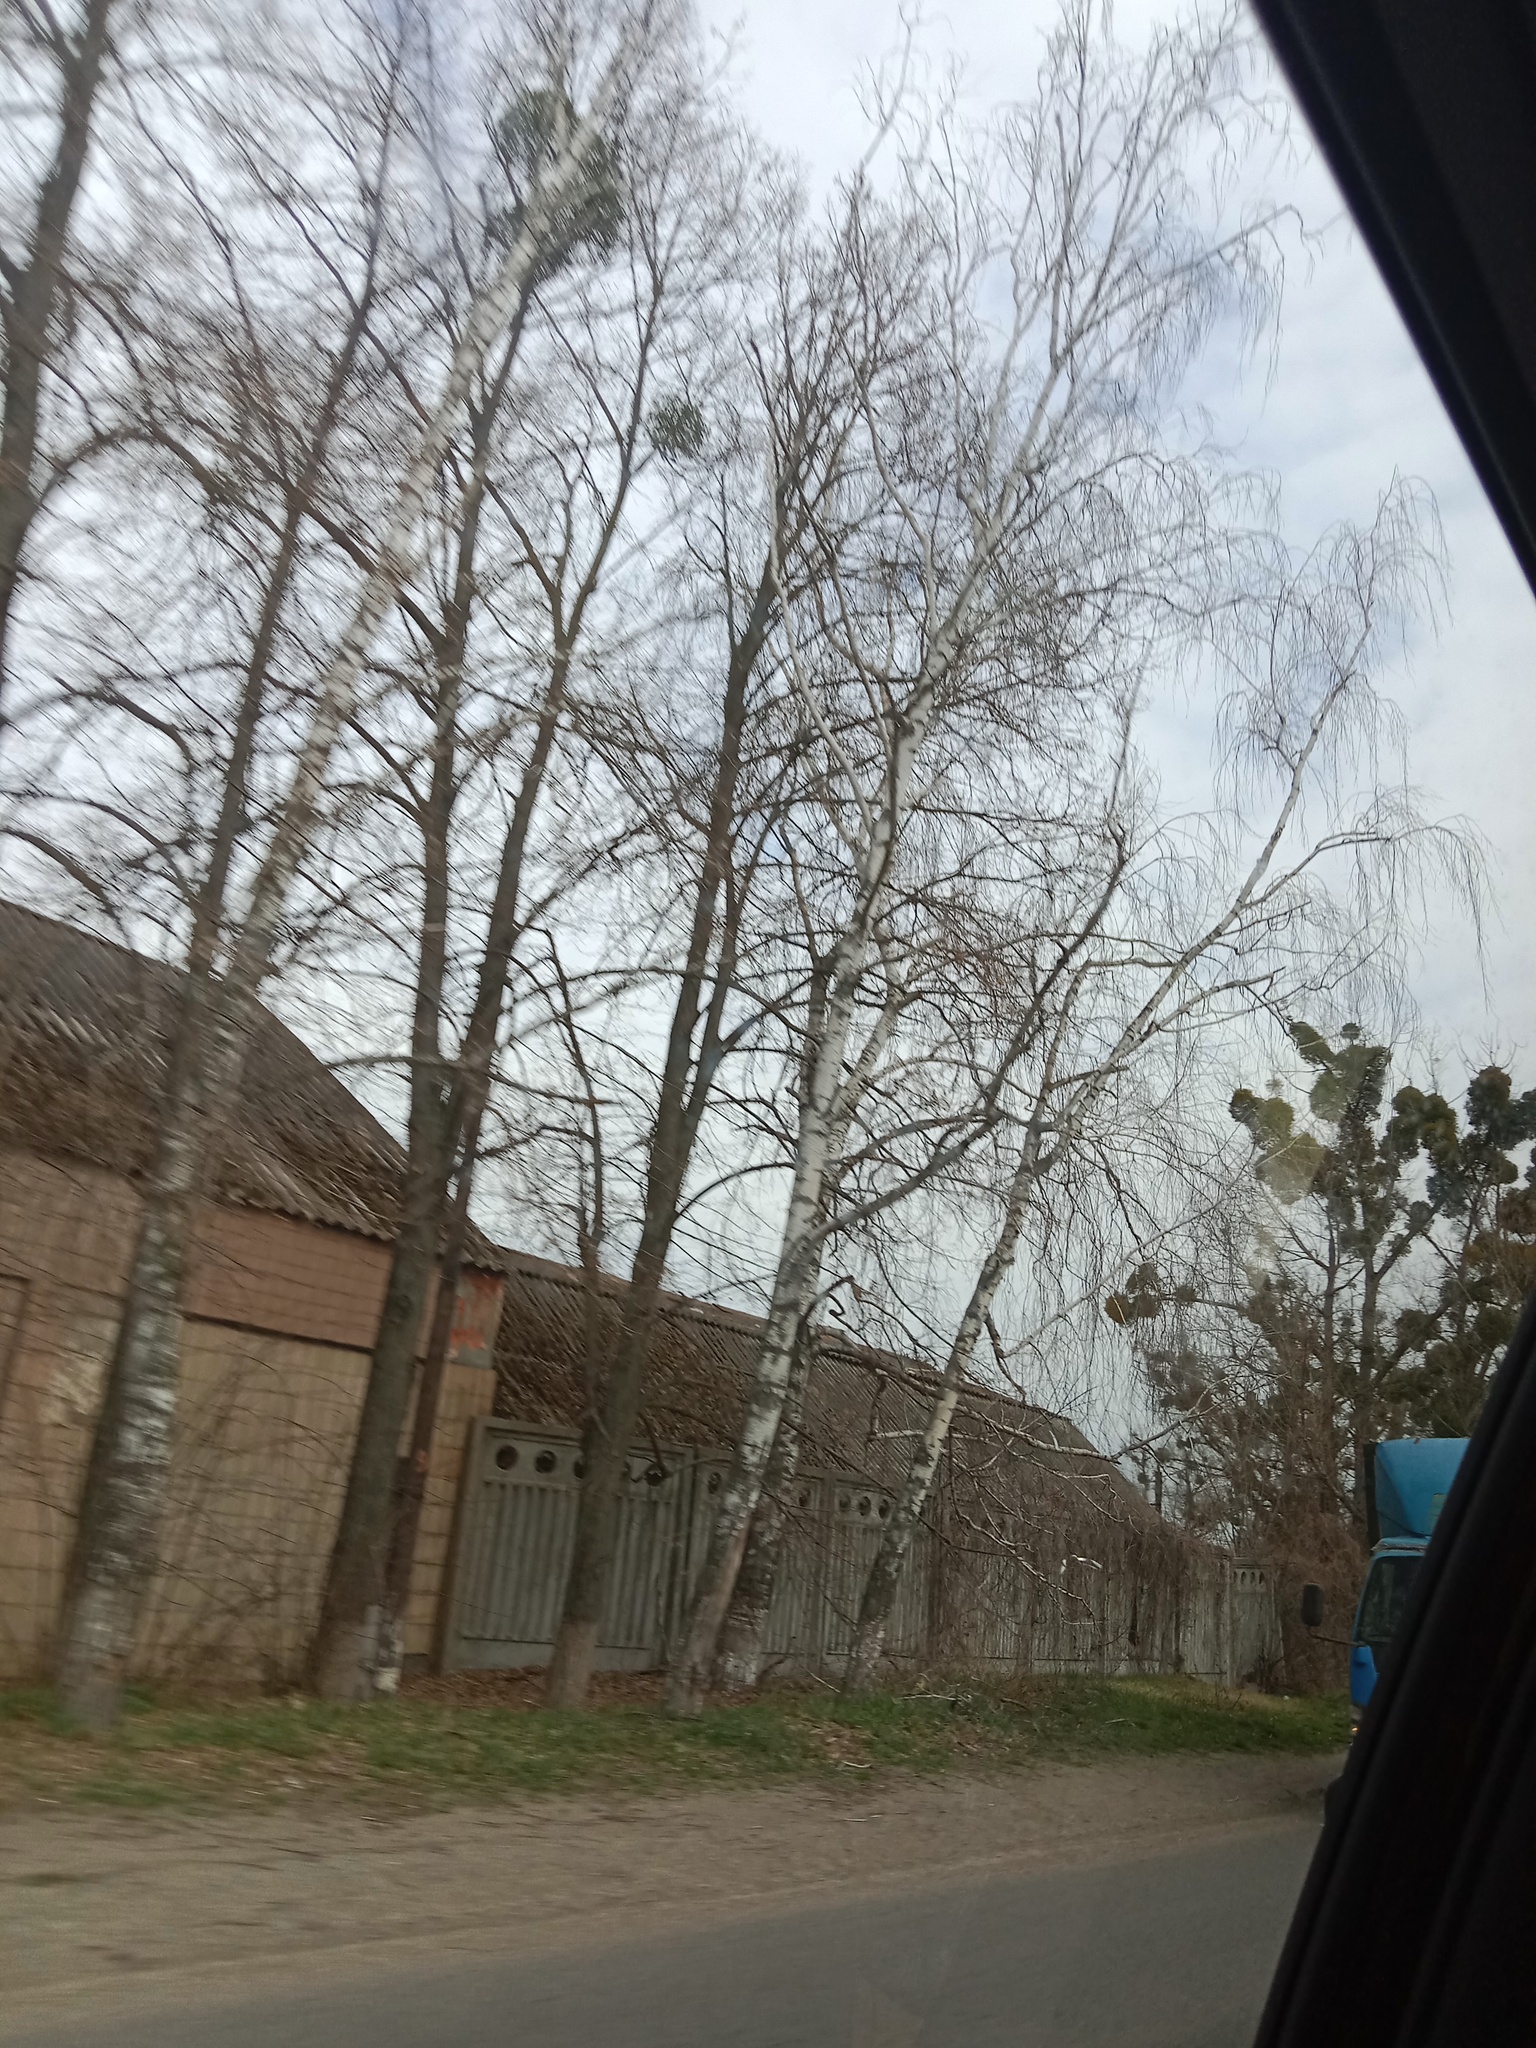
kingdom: Plantae
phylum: Tracheophyta
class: Magnoliopsida
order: Santalales
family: Viscaceae
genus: Viscum
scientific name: Viscum album
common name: Mistletoe
